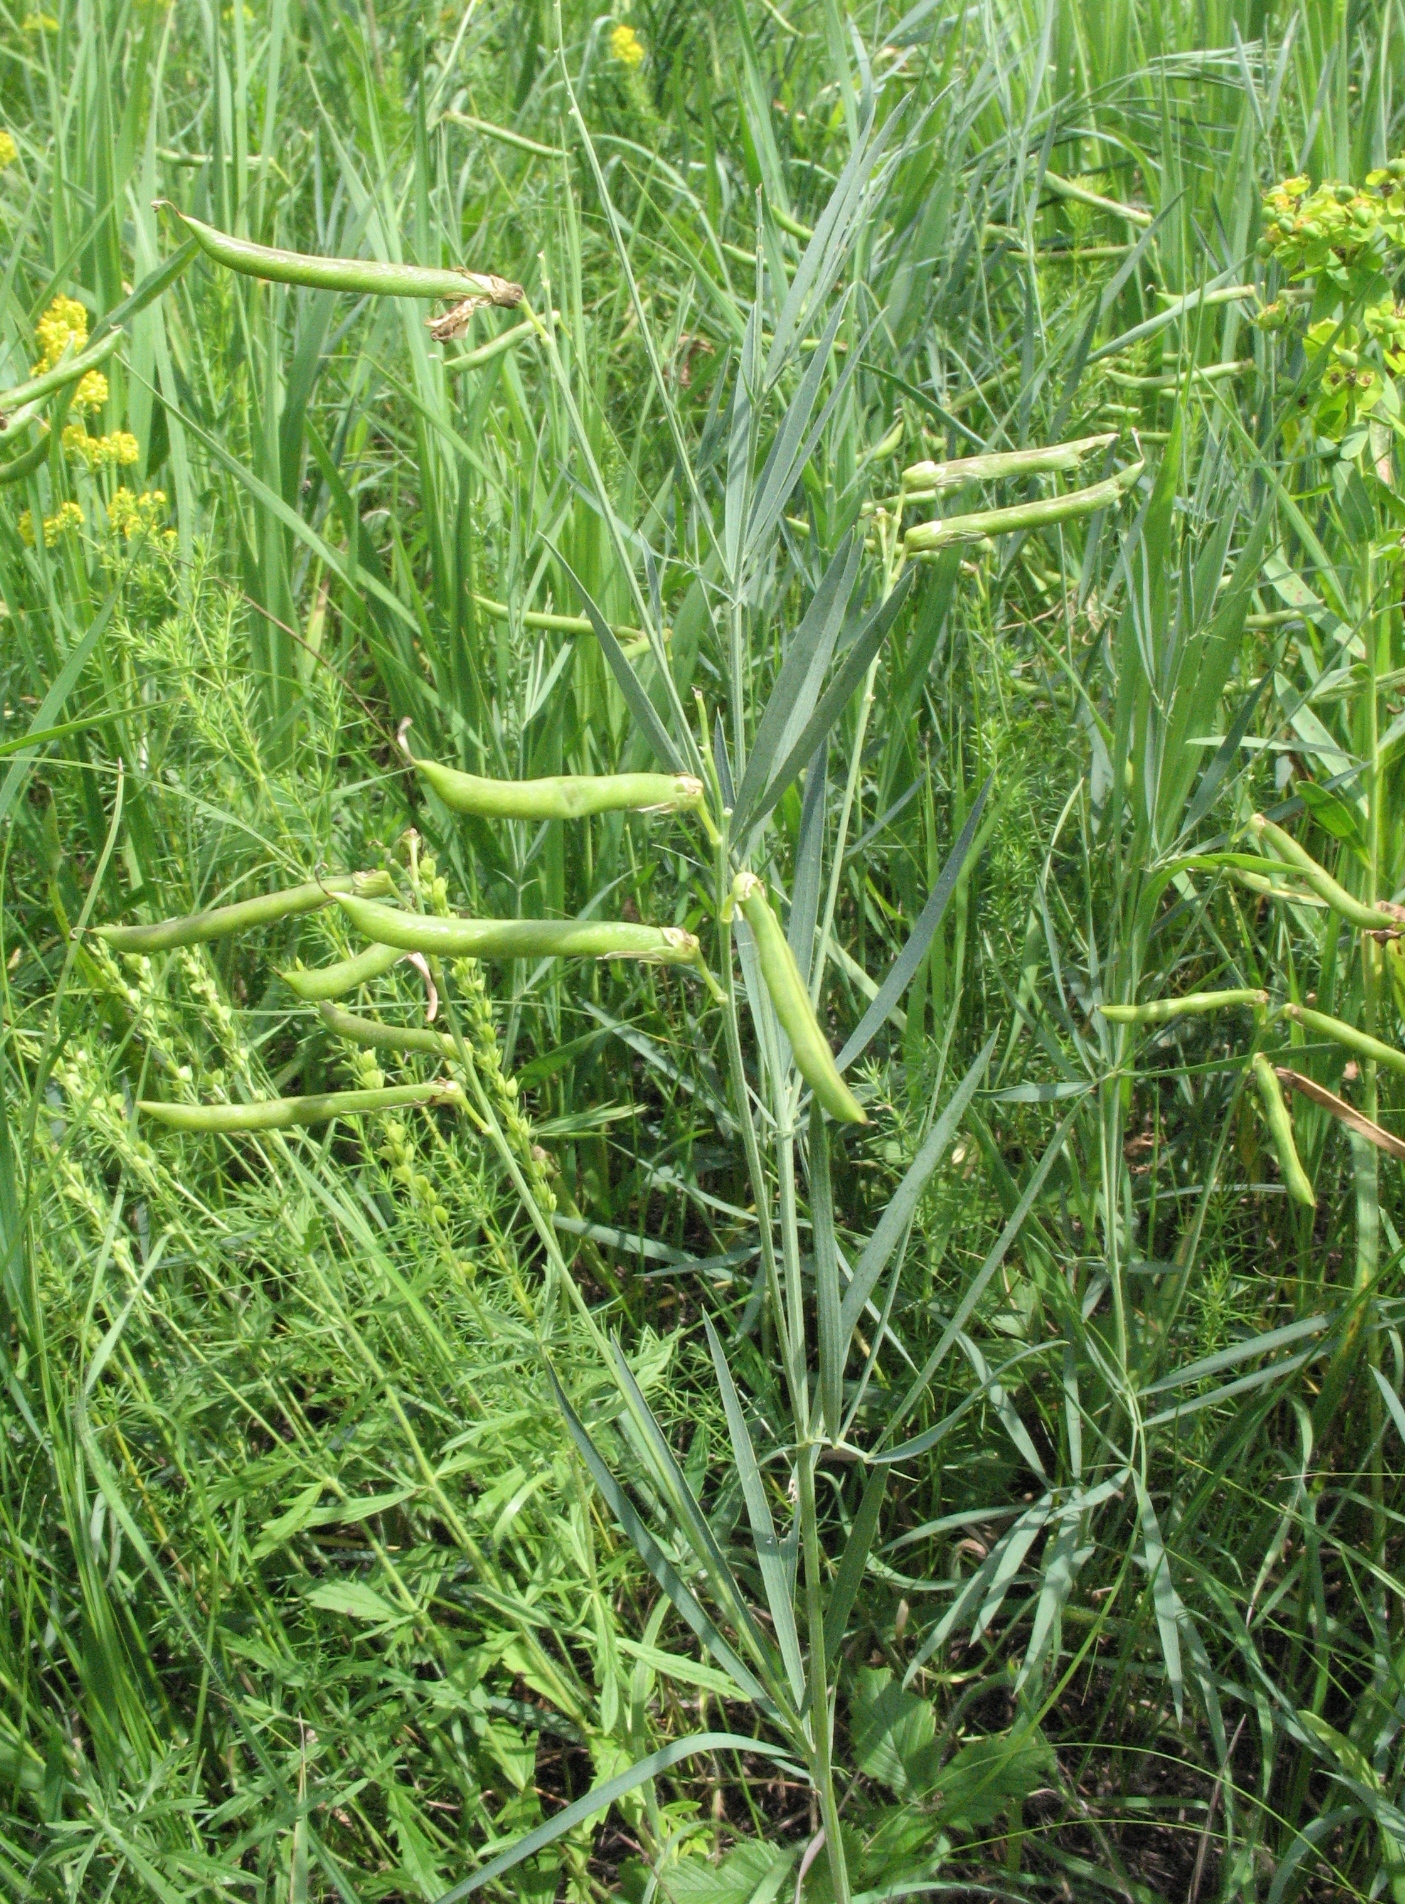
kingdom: Plantae
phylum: Tracheophyta
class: Magnoliopsida
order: Fabales
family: Fabaceae
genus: Lathyrus
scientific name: Lathyrus pallescens
